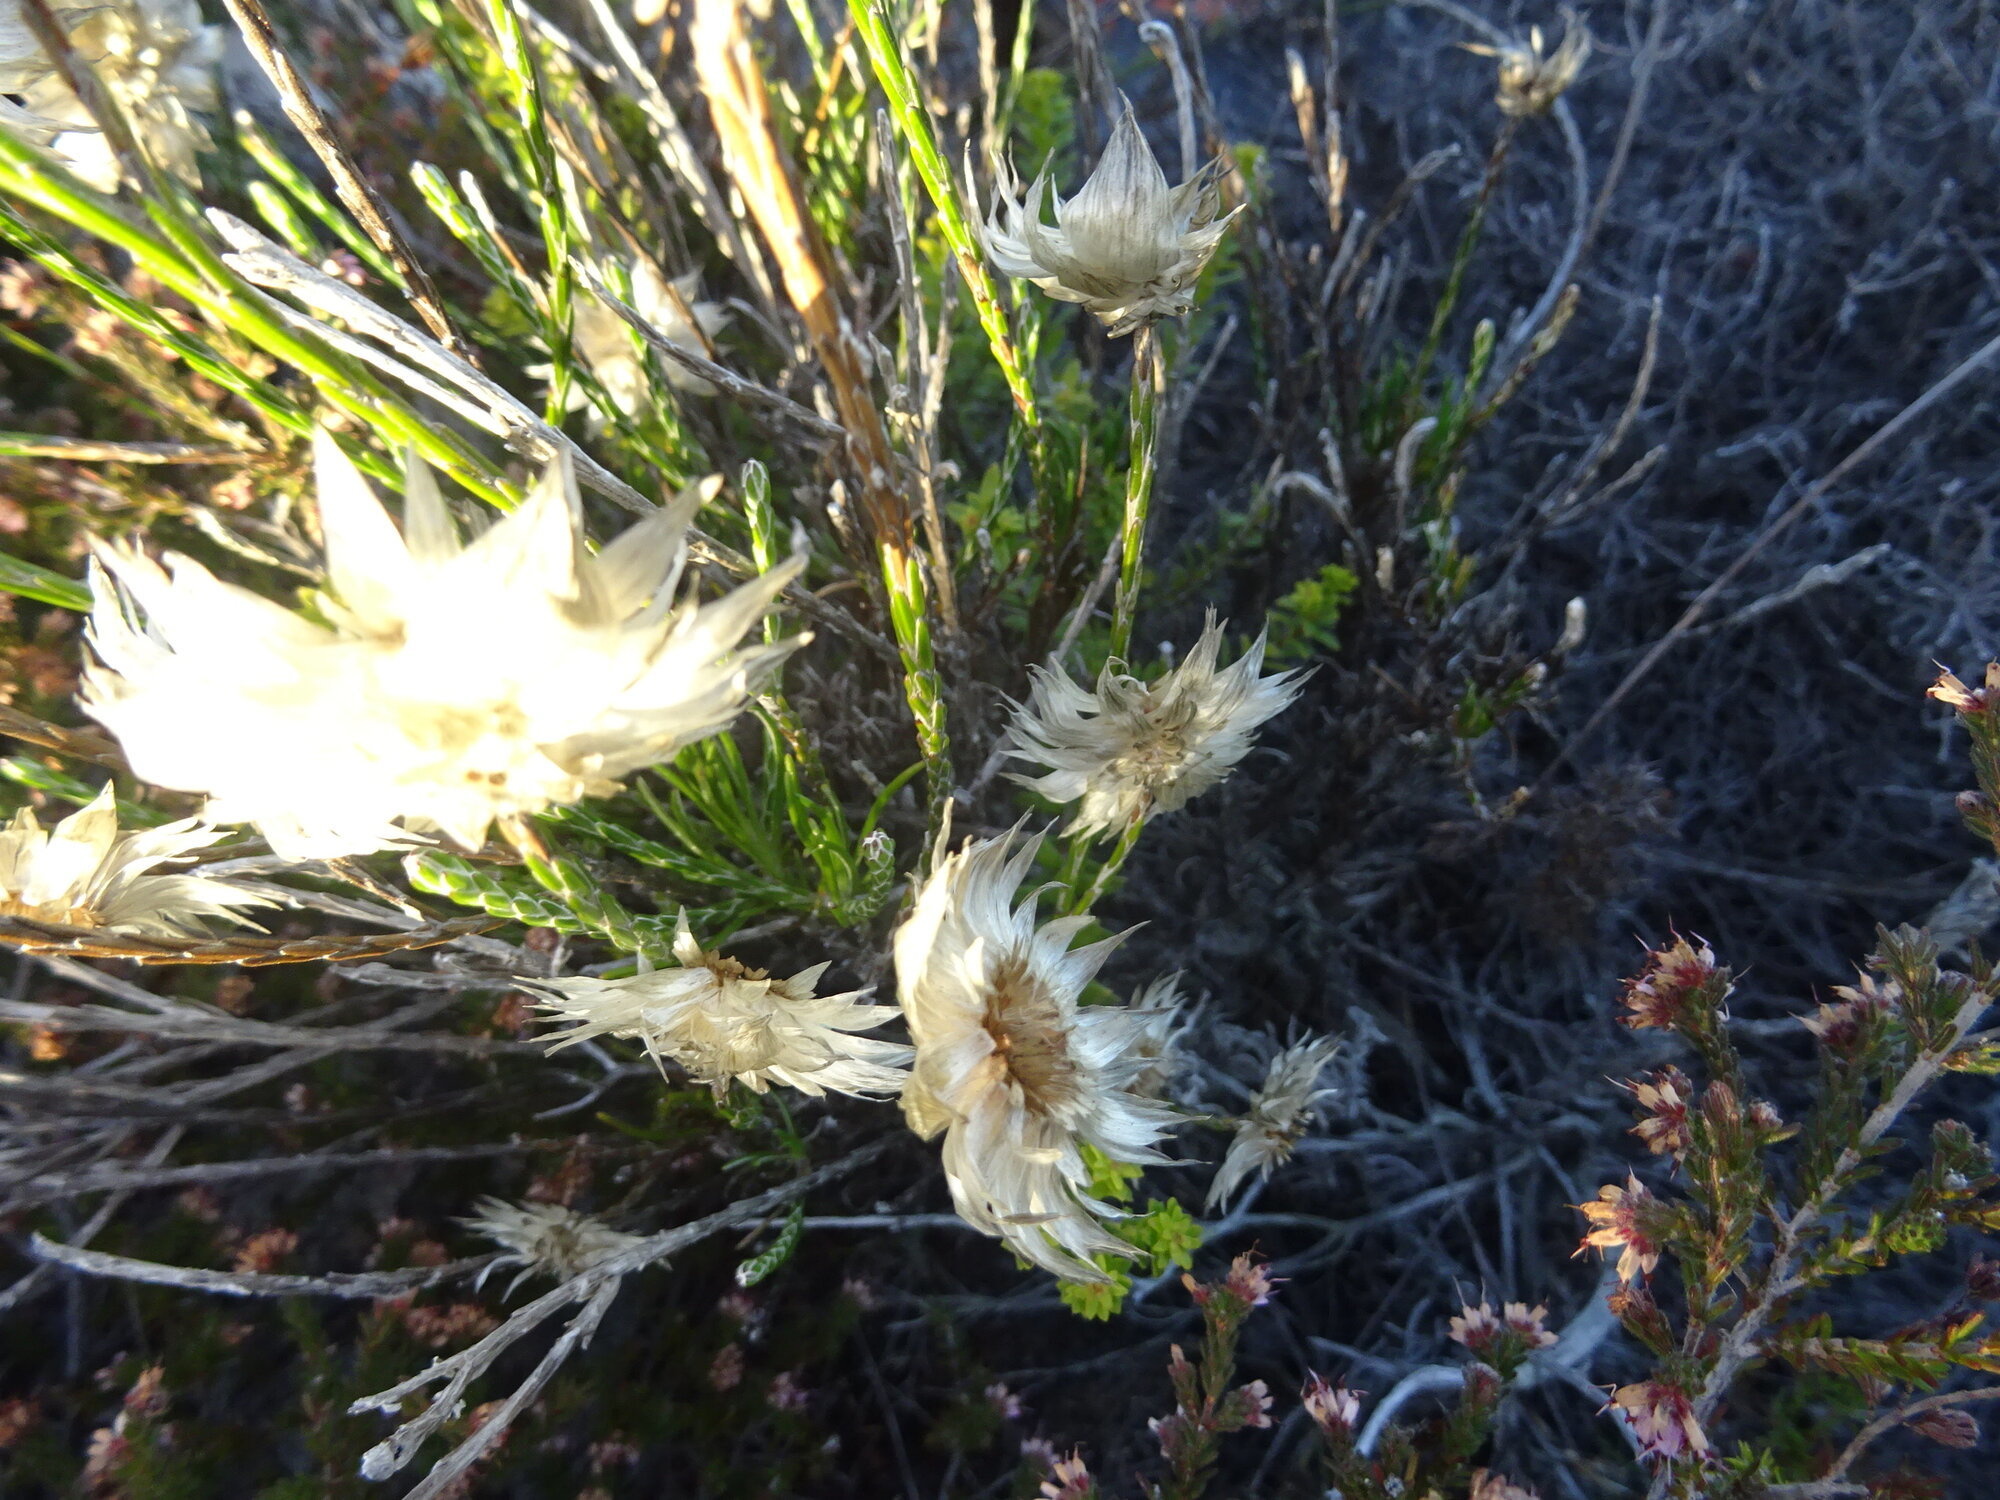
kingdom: Plantae
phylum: Tracheophyta
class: Magnoliopsida
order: Asterales
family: Asteraceae
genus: Edmondia
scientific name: Edmondia sesamoides
